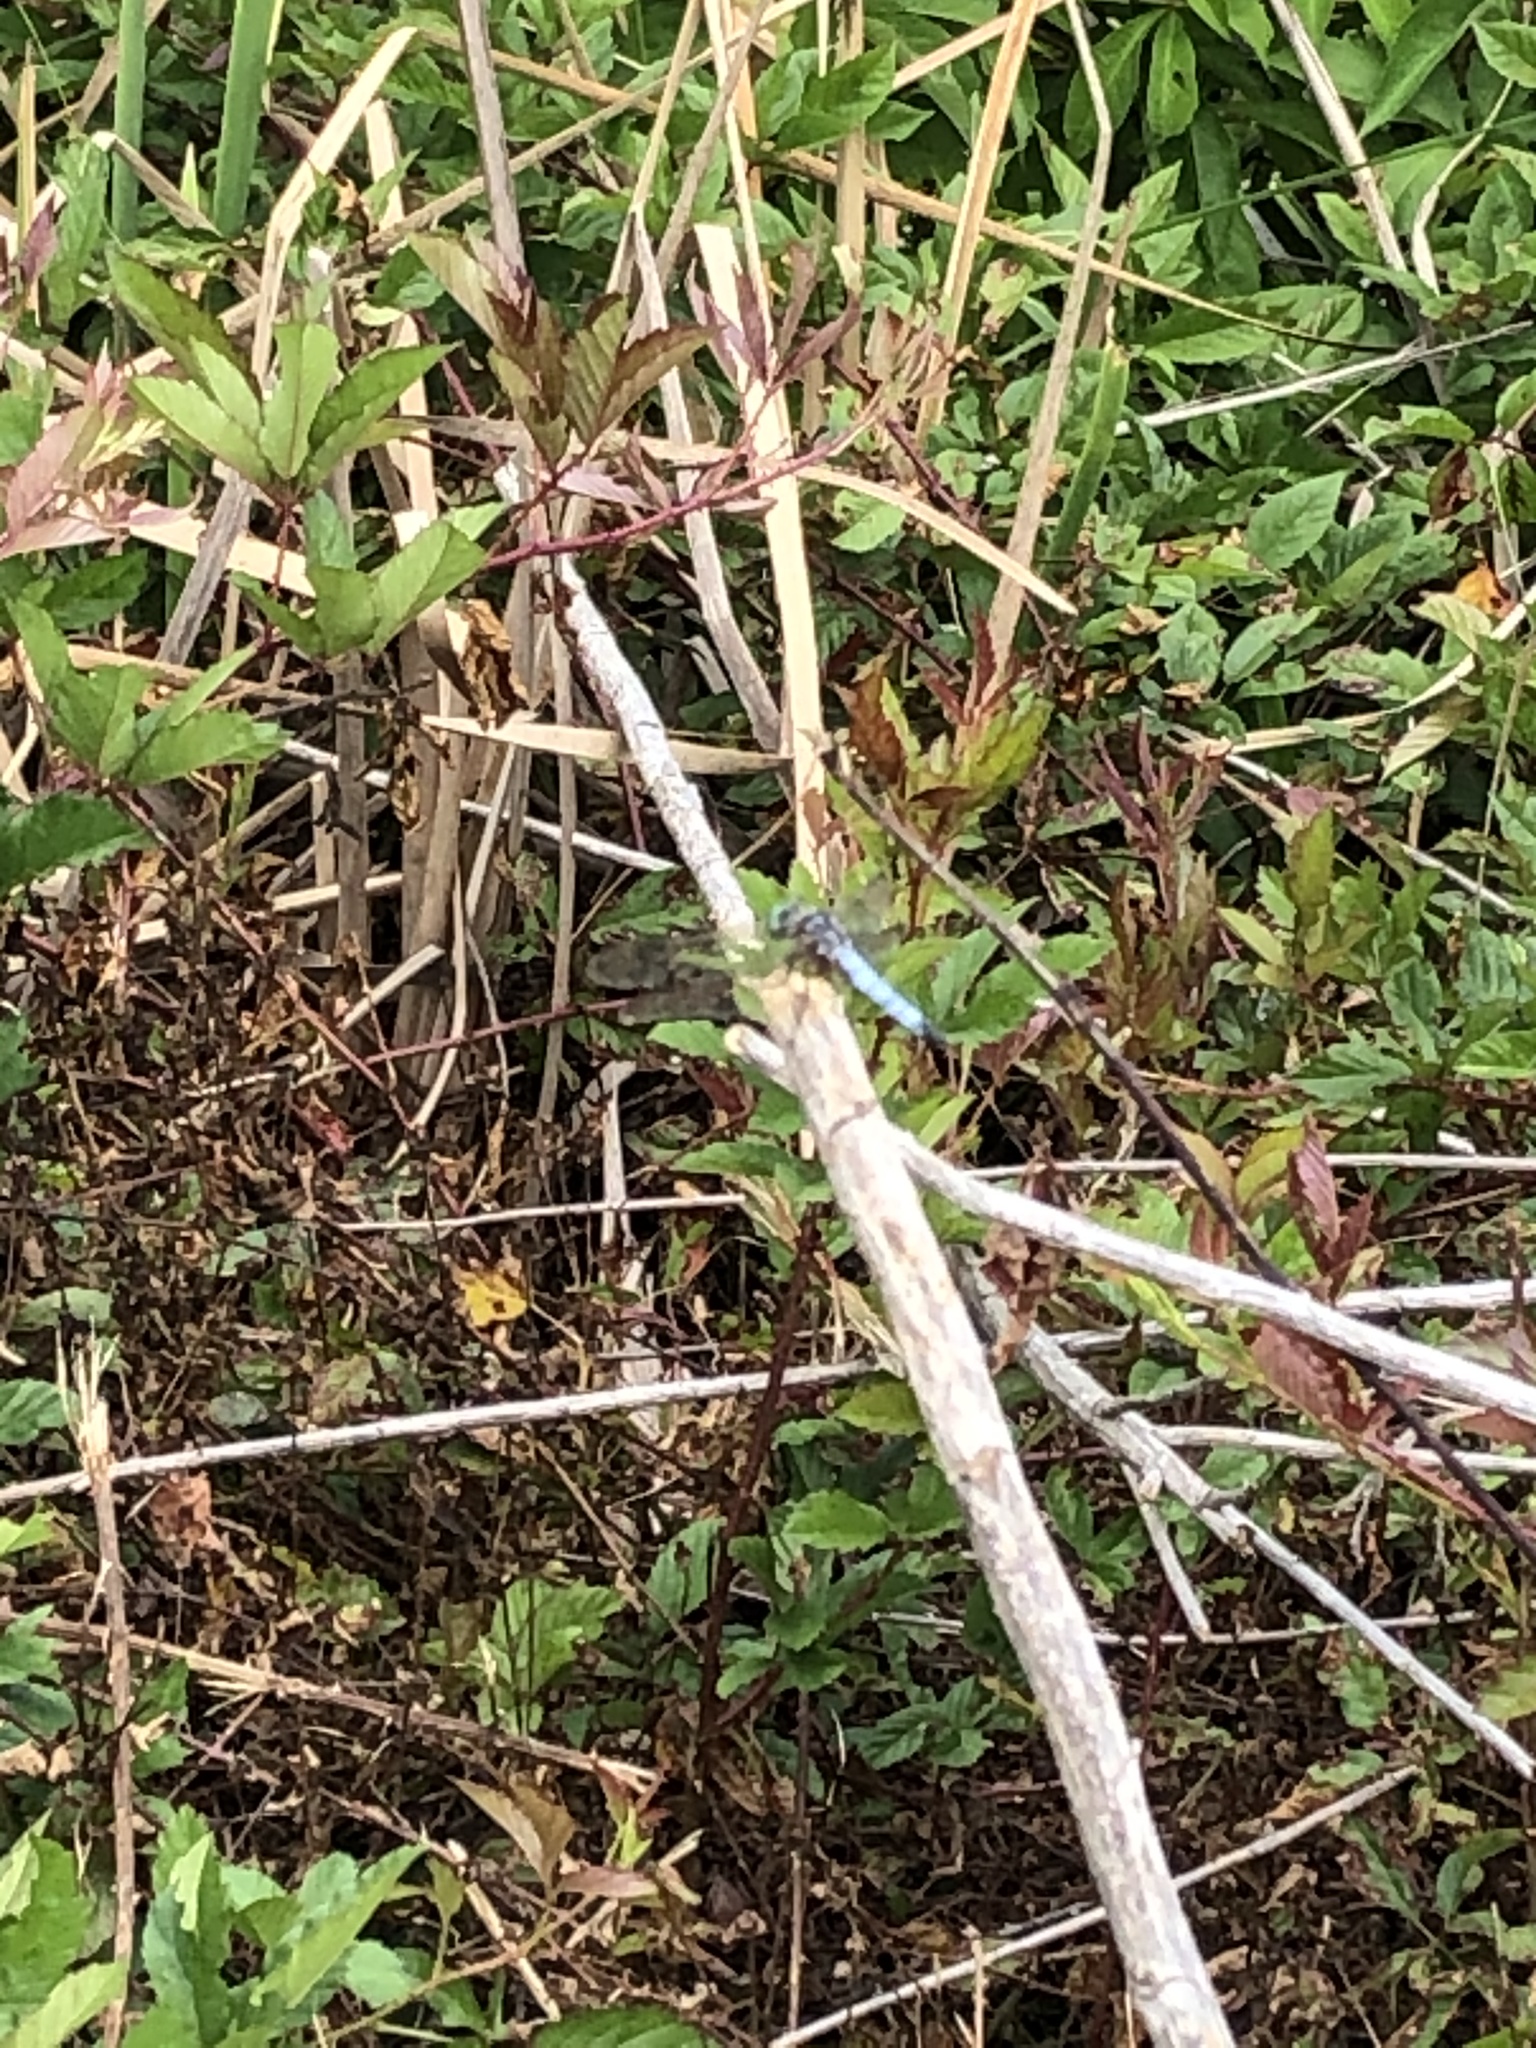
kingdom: Animalia
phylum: Arthropoda
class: Insecta
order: Odonata
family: Libellulidae
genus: Pachydiplax
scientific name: Pachydiplax longipennis
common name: Blue dasher
